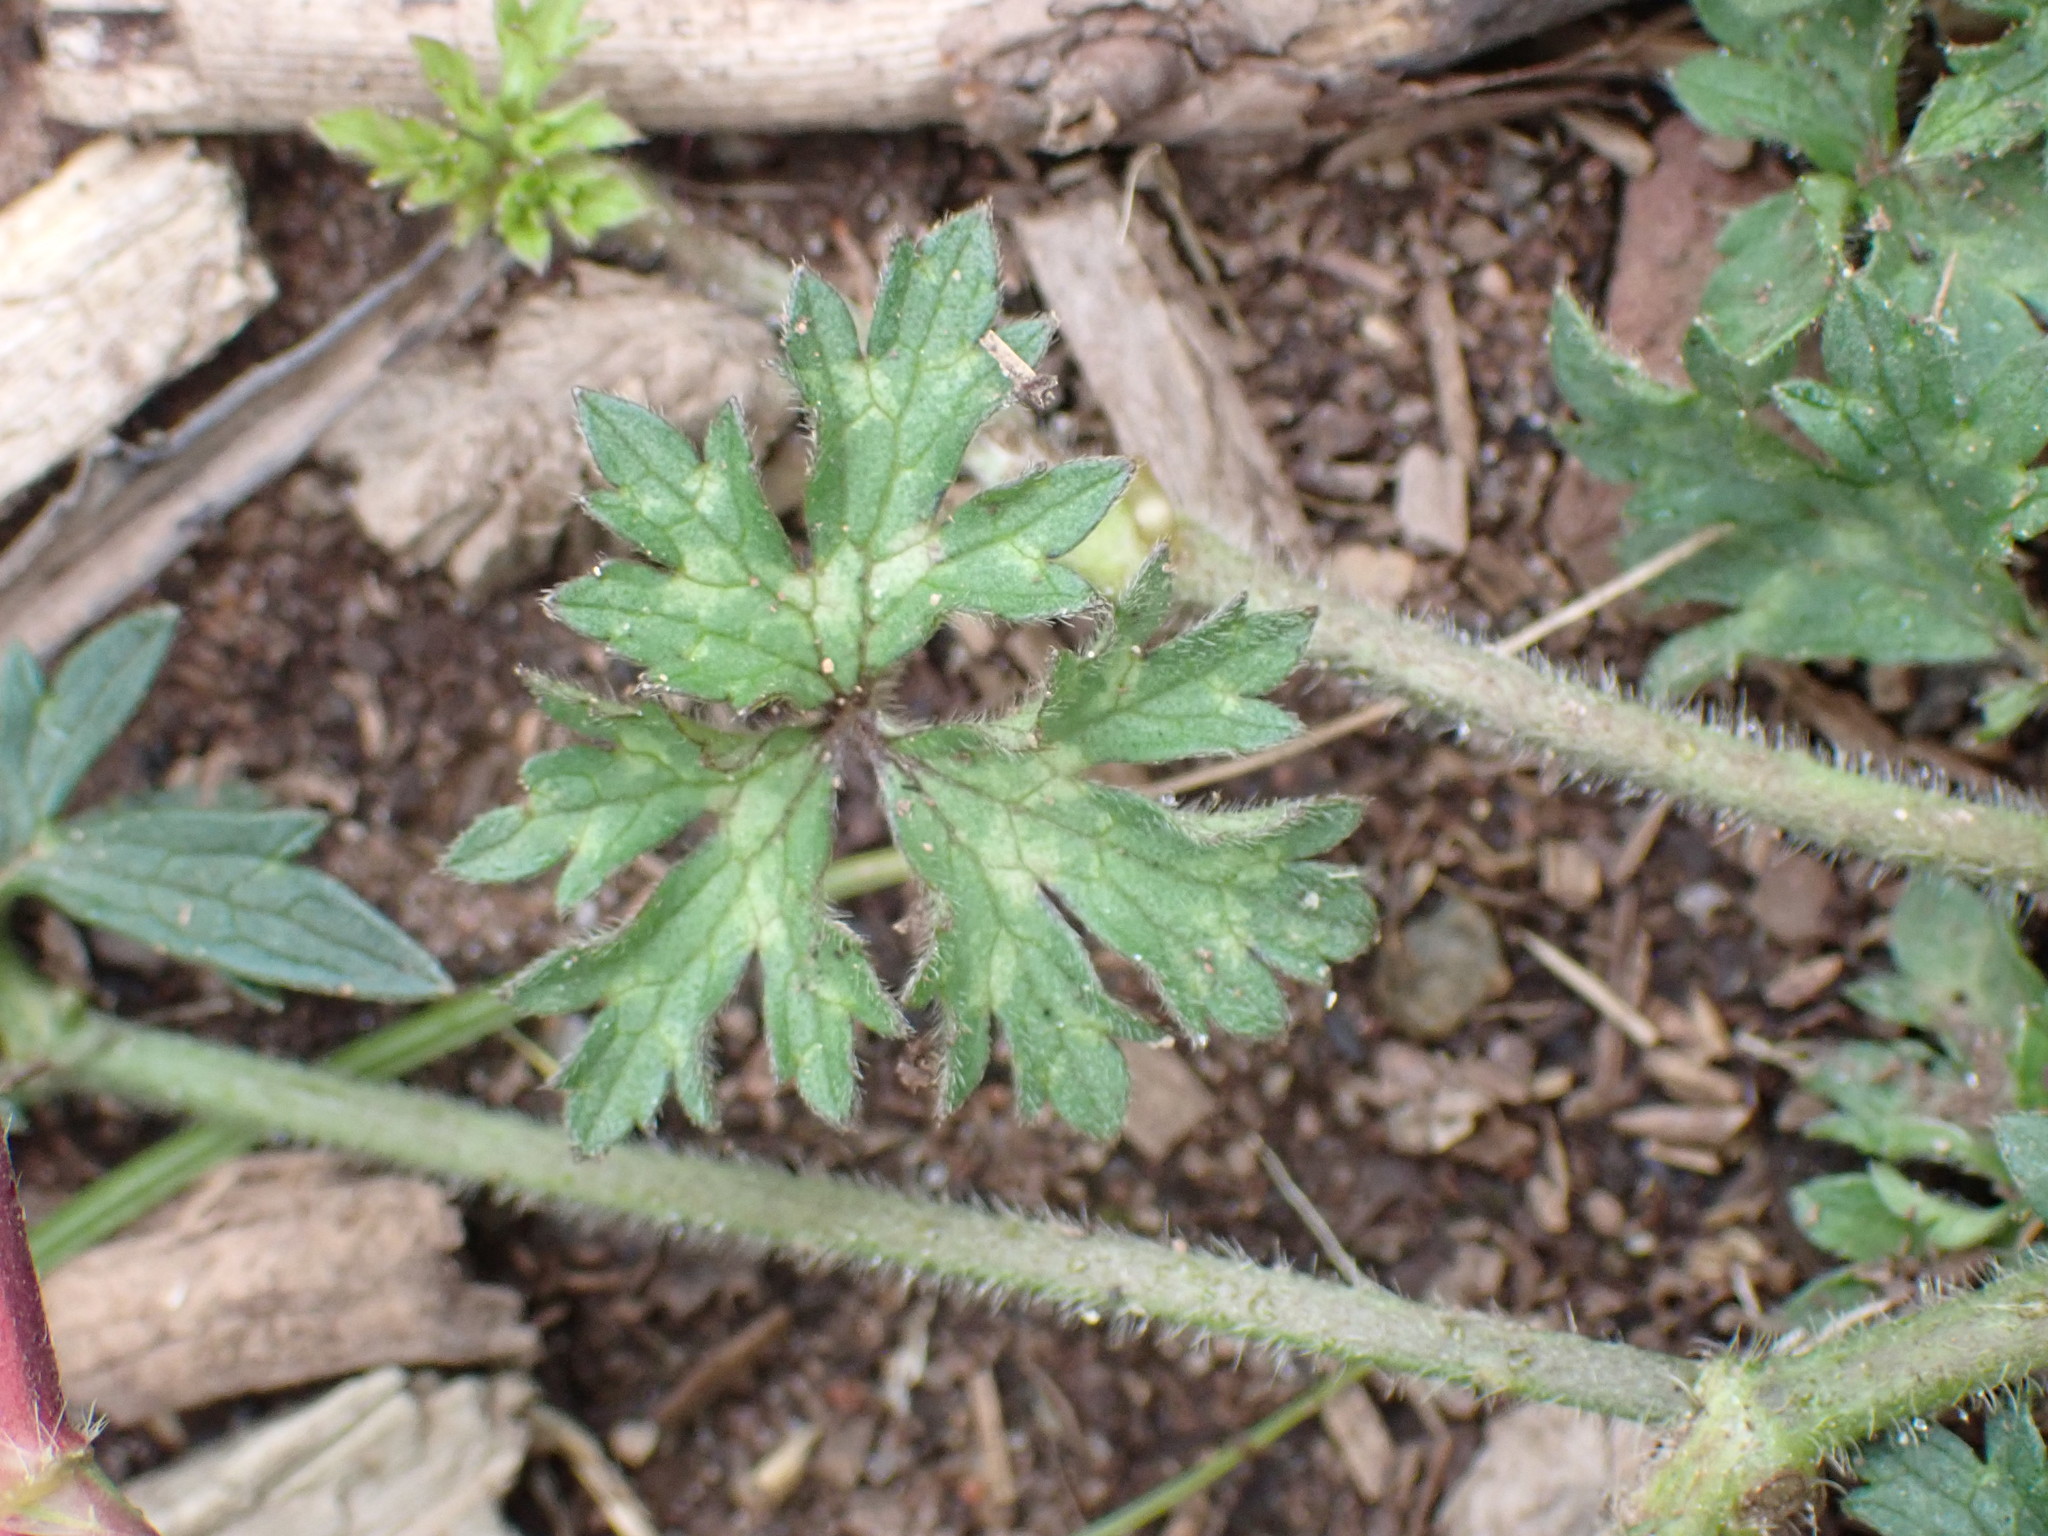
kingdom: Plantae
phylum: Tracheophyta
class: Magnoliopsida
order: Ranunculales
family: Ranunculaceae
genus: Ranunculus
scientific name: Ranunculus repens
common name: Creeping buttercup
